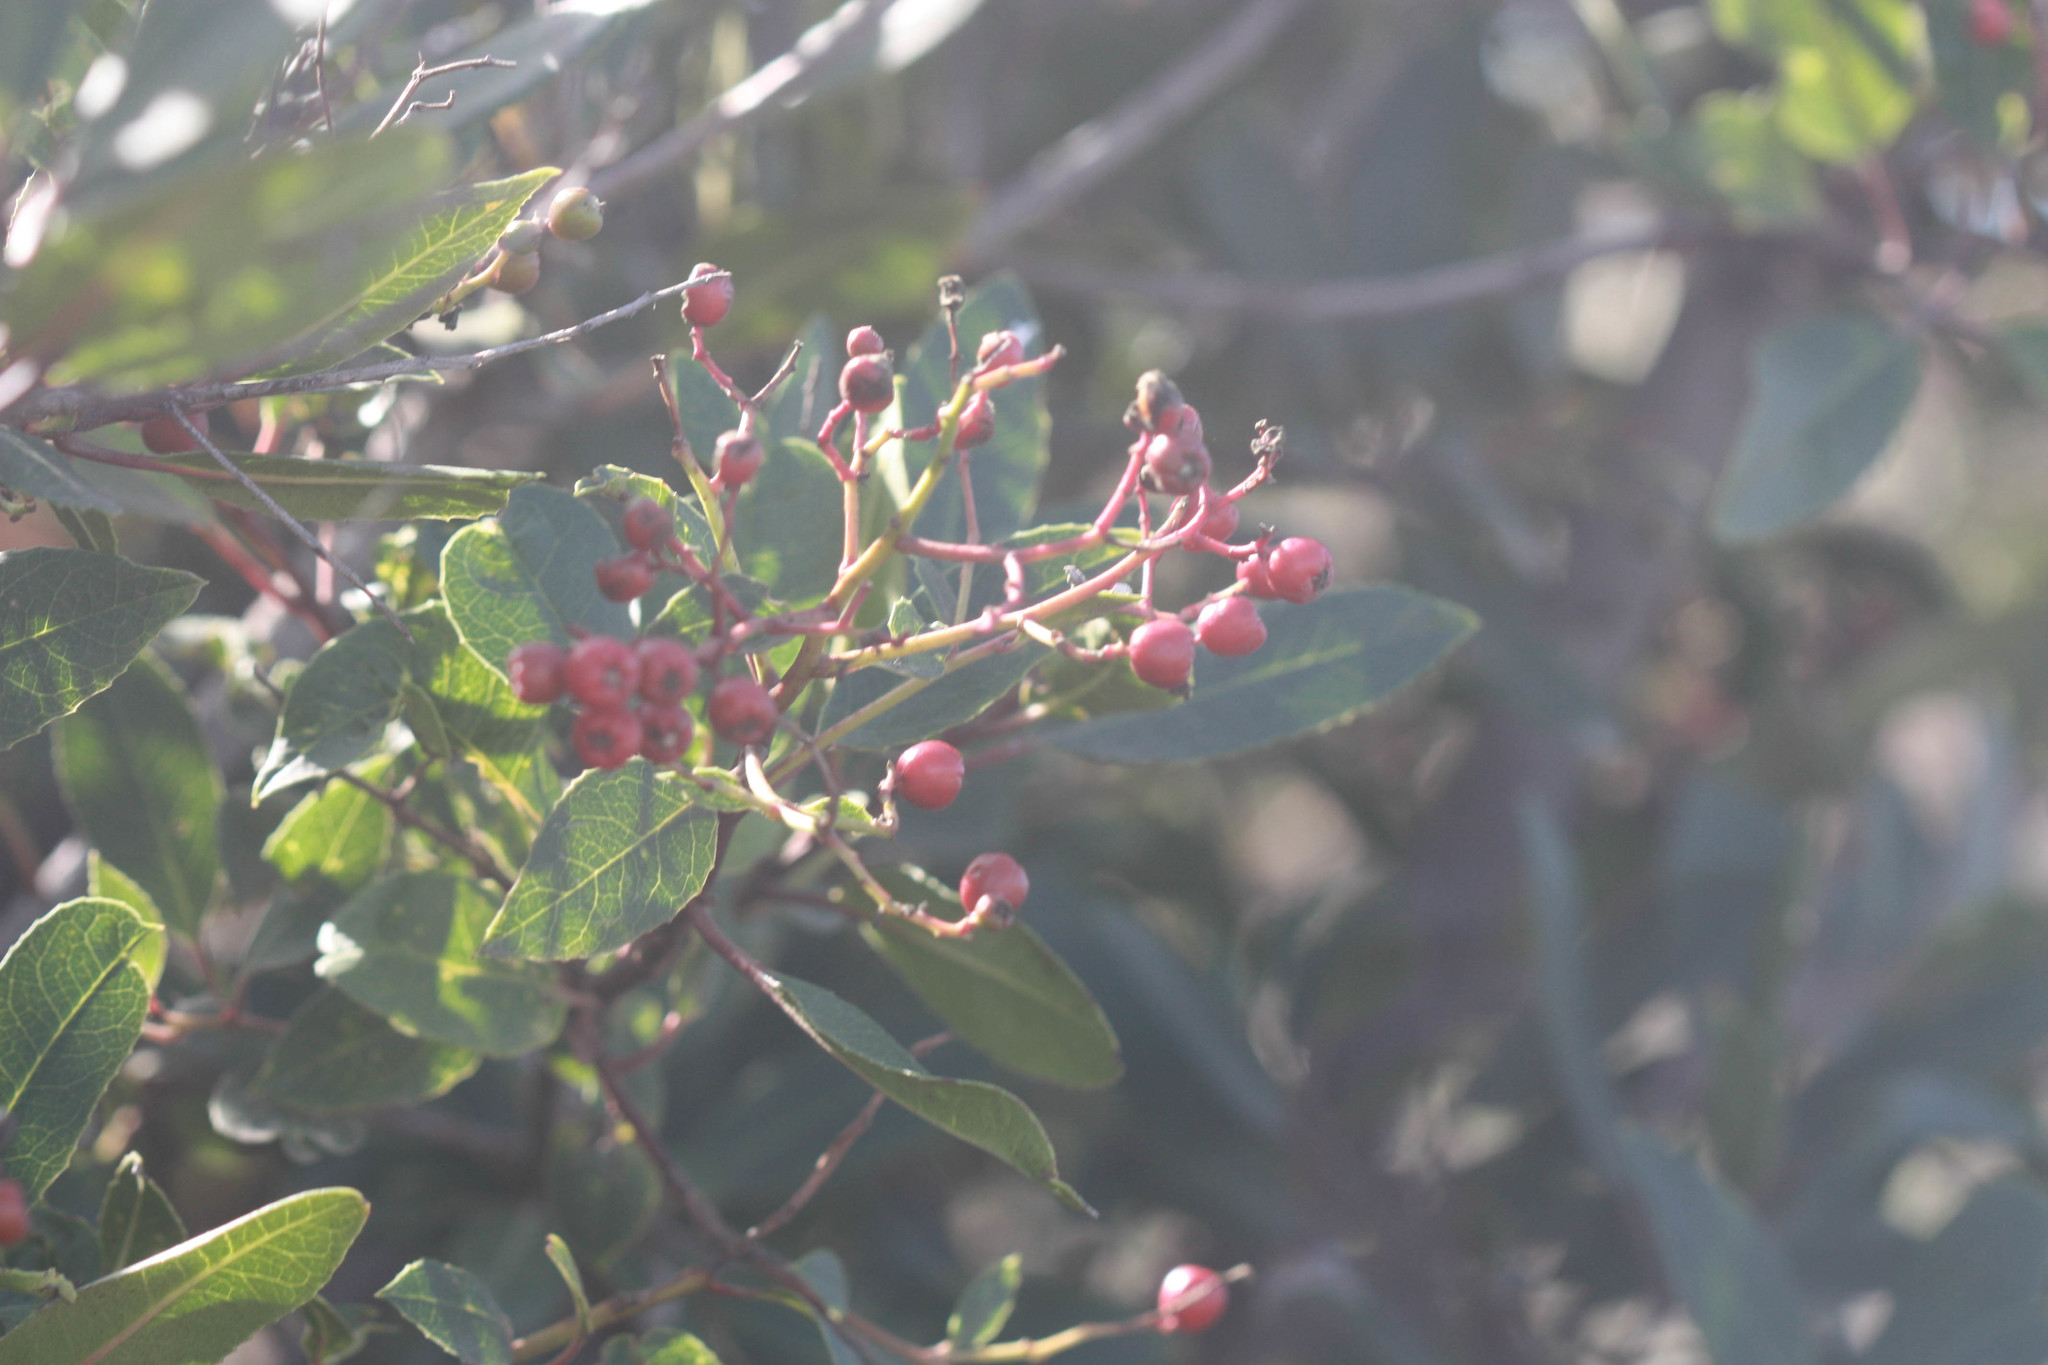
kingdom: Plantae
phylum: Tracheophyta
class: Magnoliopsida
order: Rosales
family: Rosaceae
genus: Heteromeles
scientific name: Heteromeles arbutifolia
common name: California-holly
